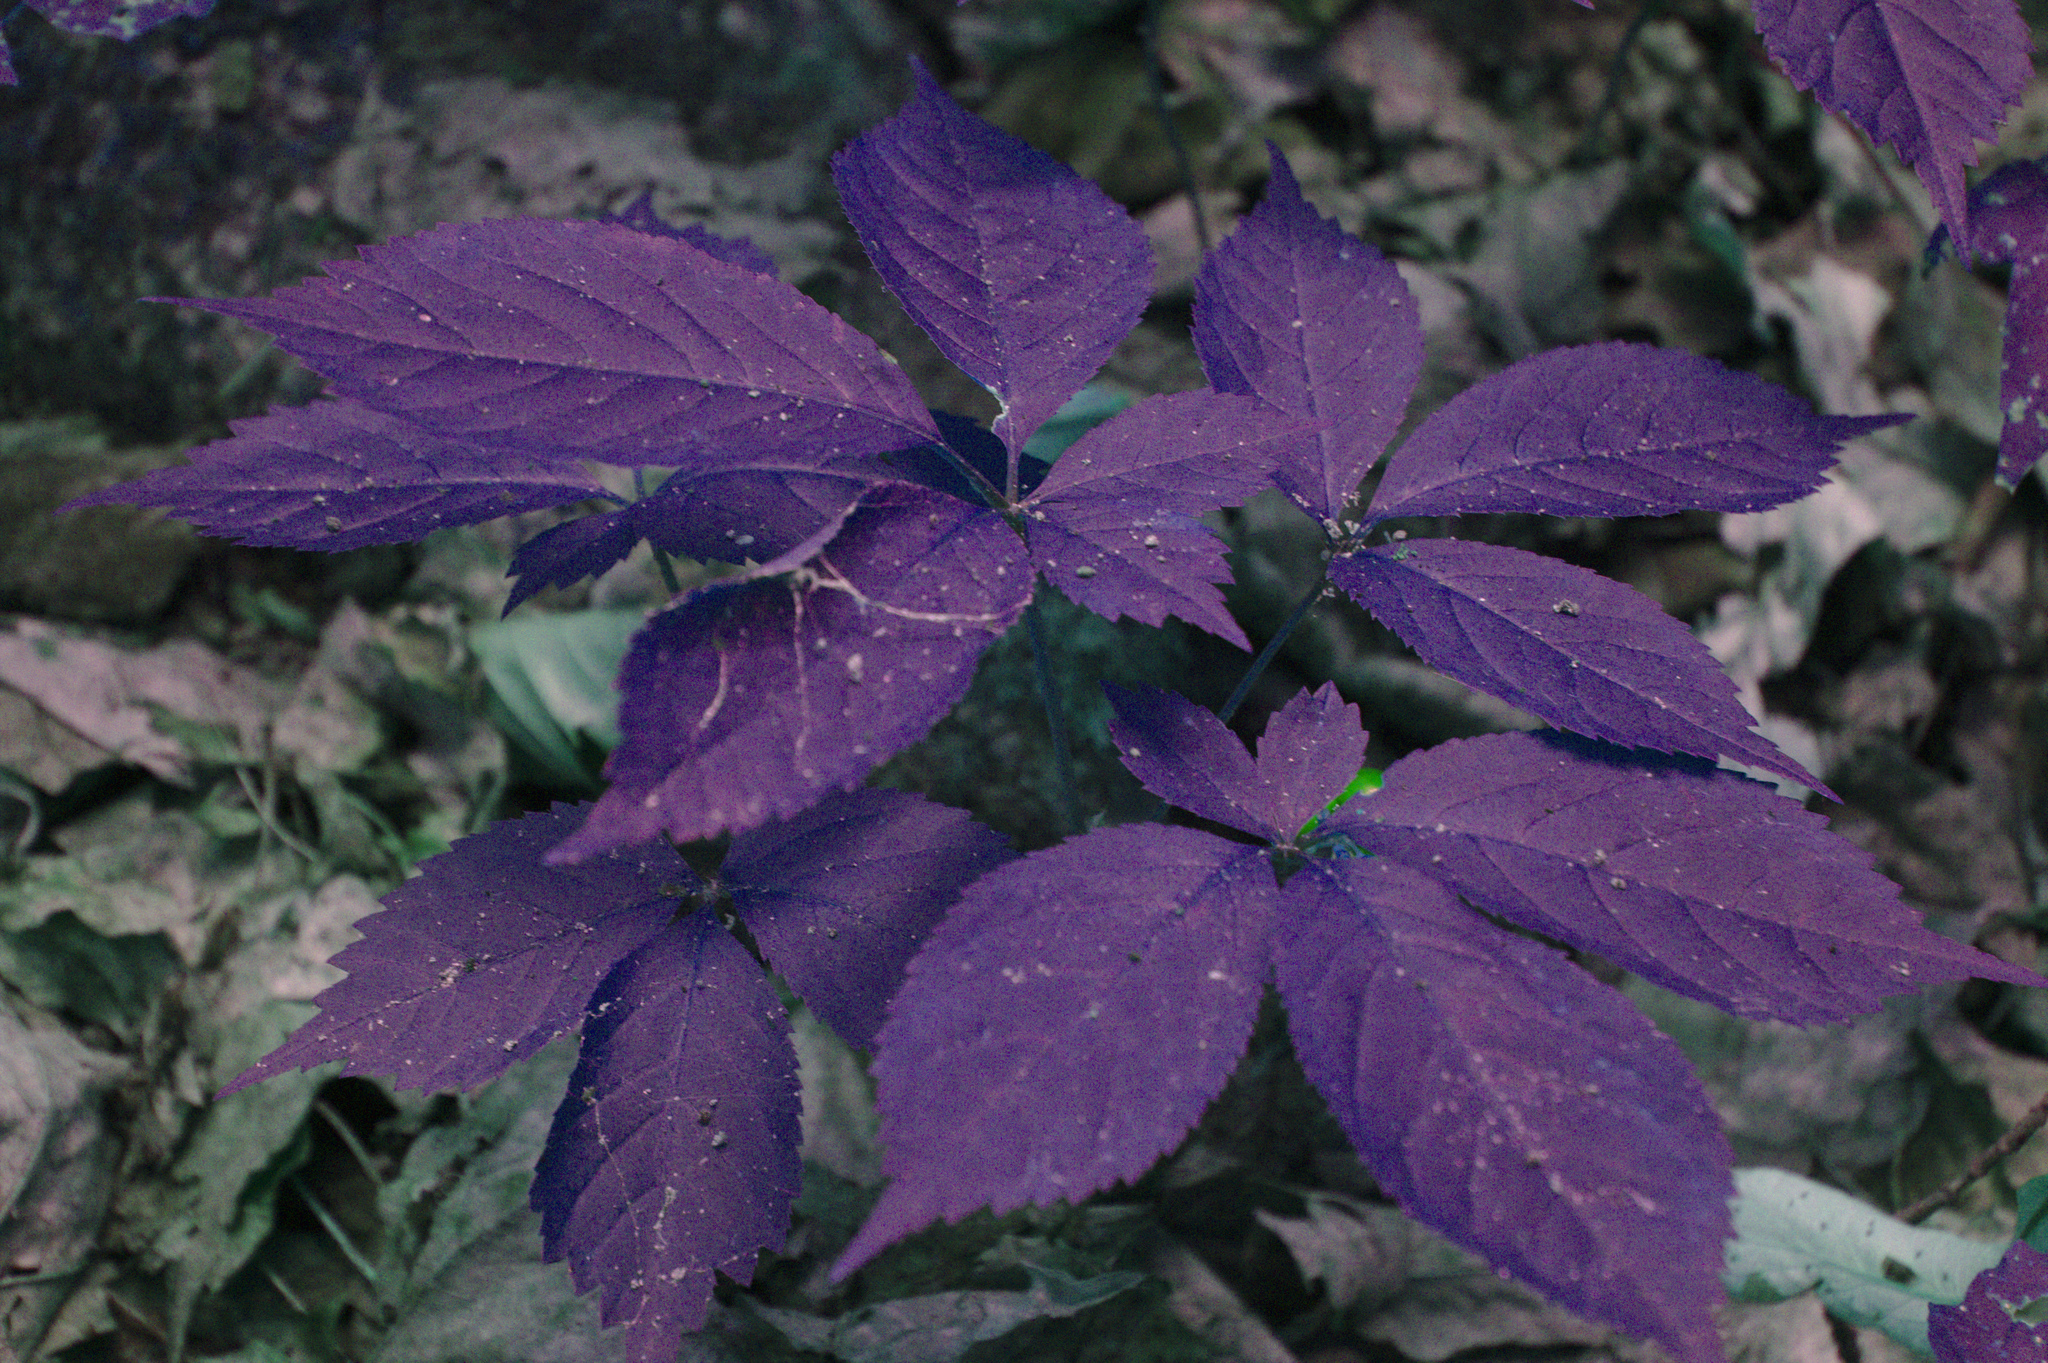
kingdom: Plantae
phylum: Tracheophyta
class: Magnoliopsida
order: Apiales
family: Araliaceae
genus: Panax
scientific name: Panax quinquefolius
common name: American ginseng
